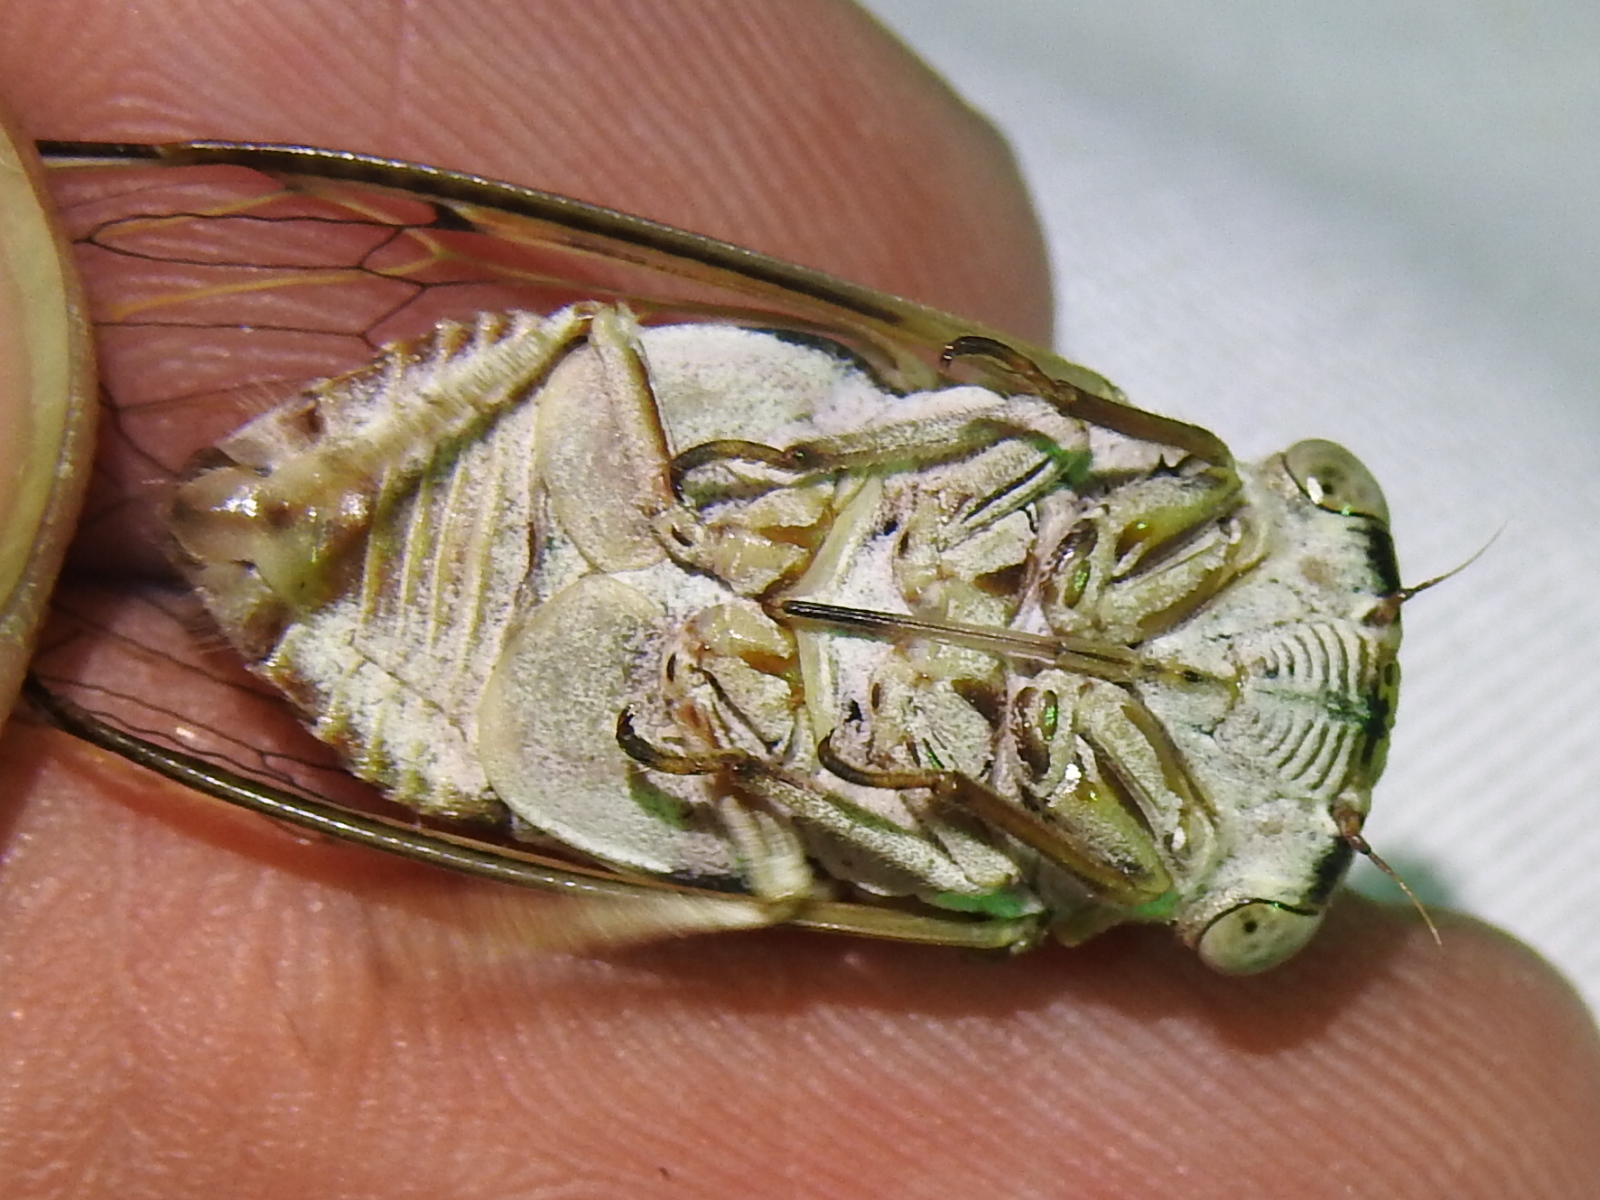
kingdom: Animalia
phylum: Arthropoda
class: Insecta
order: Hemiptera
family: Cicadidae
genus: Diceroprocta
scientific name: Diceroprocta texana
